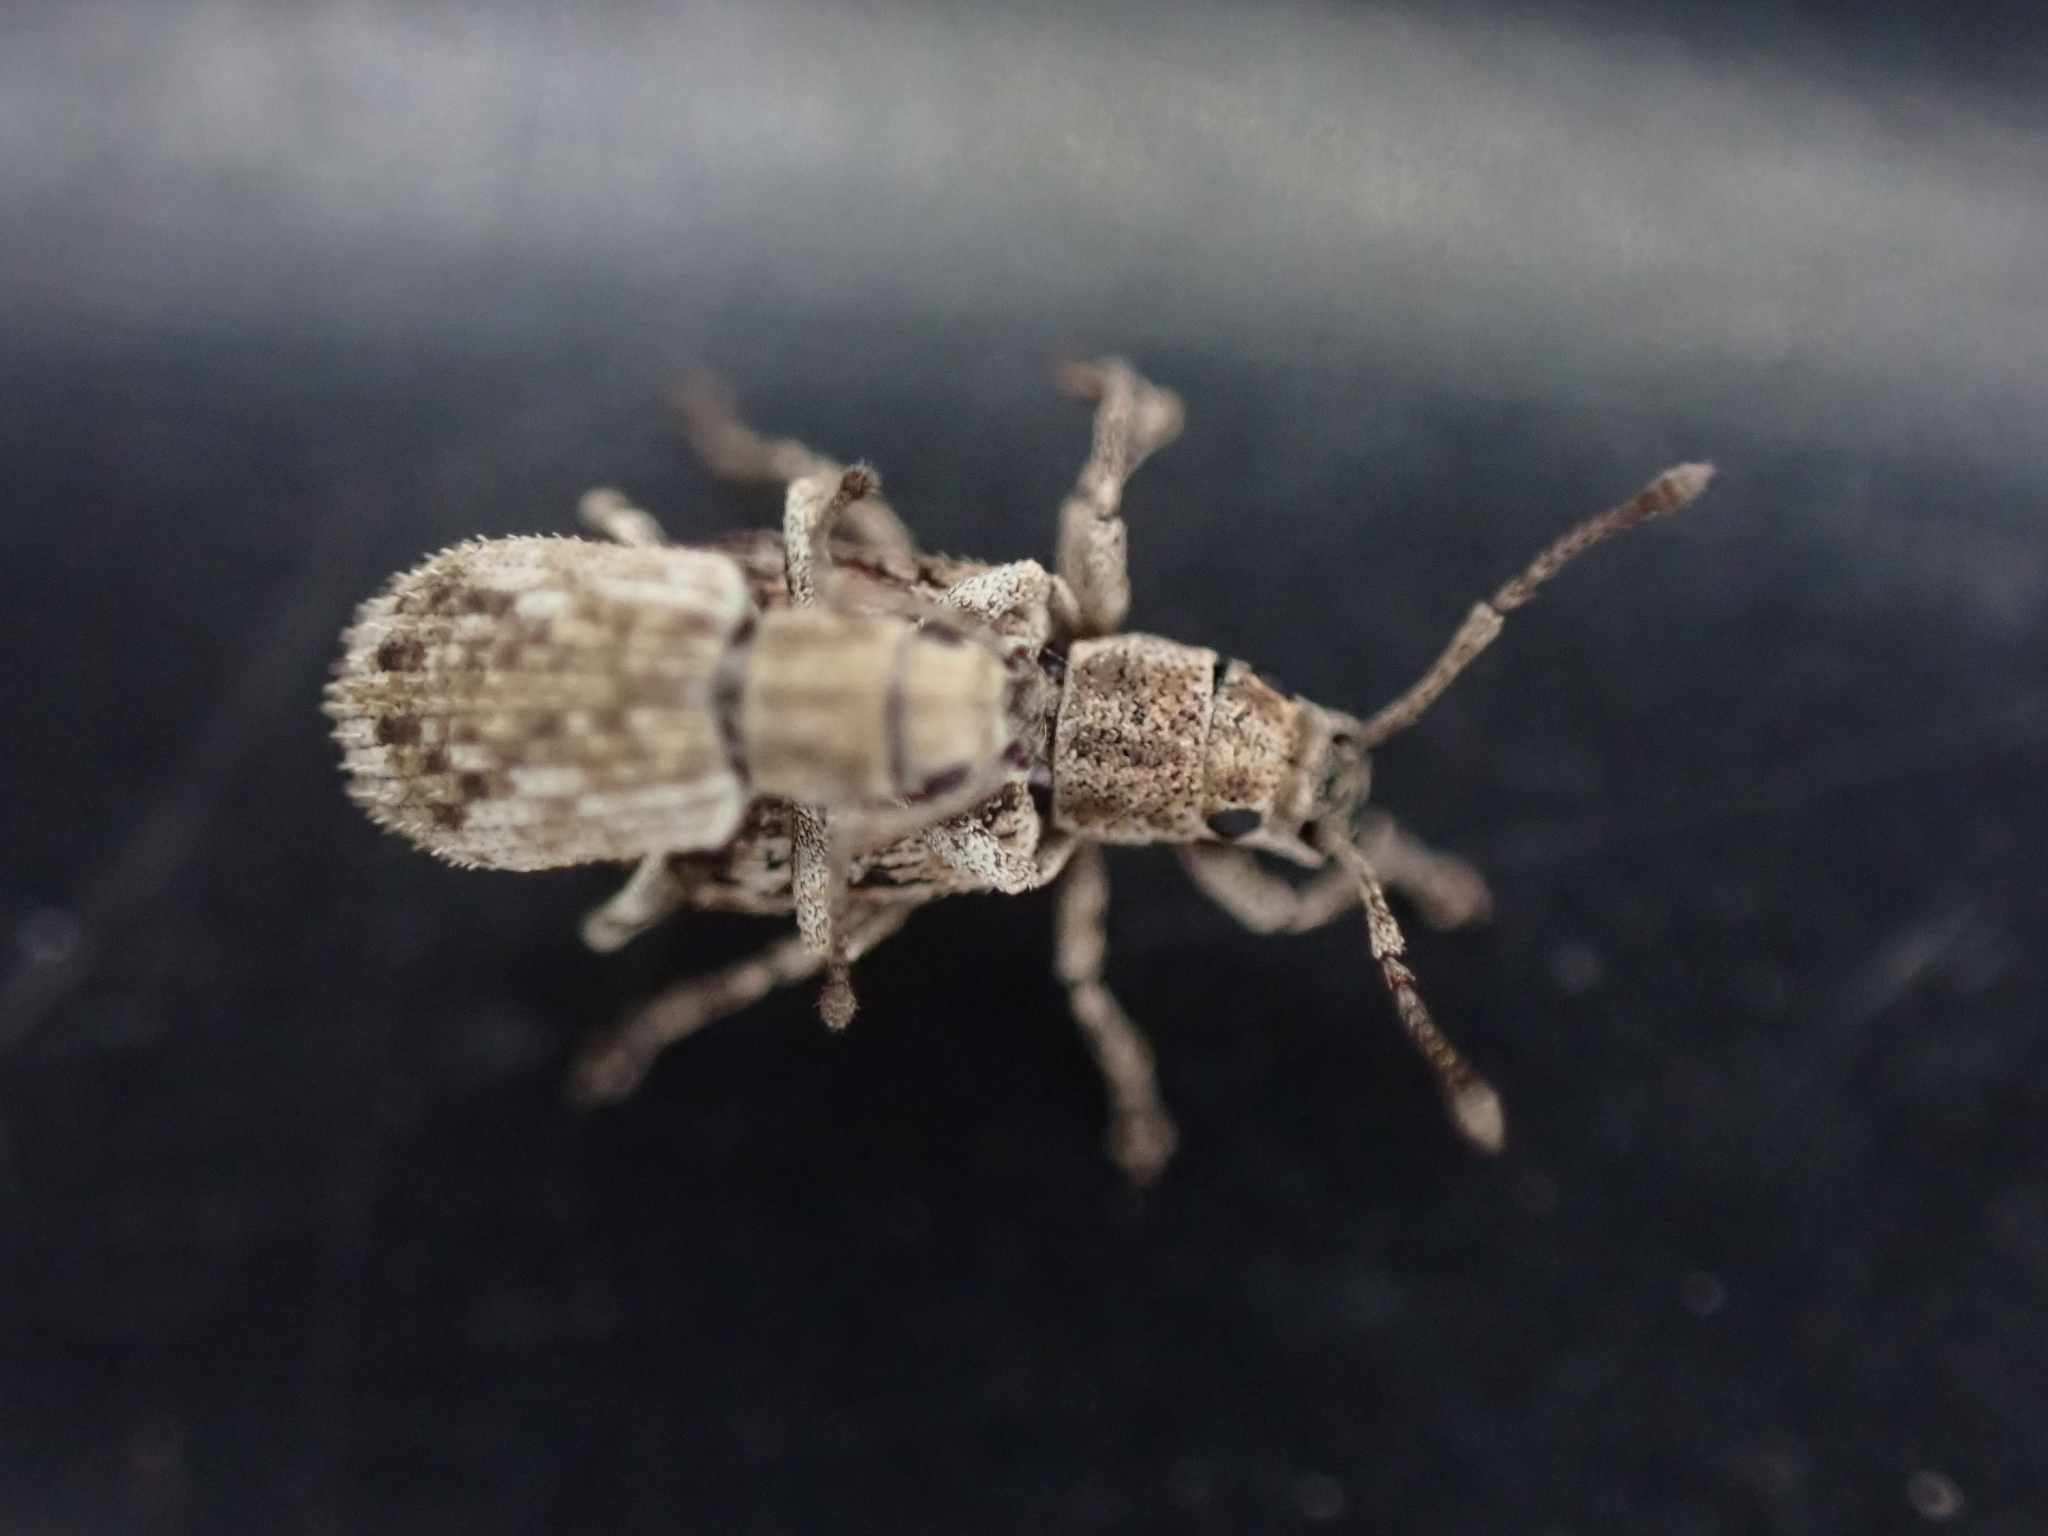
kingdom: Animalia
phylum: Arthropoda
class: Insecta
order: Coleoptera
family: Curculionidae
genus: Pseudoedophrys
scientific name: Pseudoedophrys hilleri
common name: Weevil
